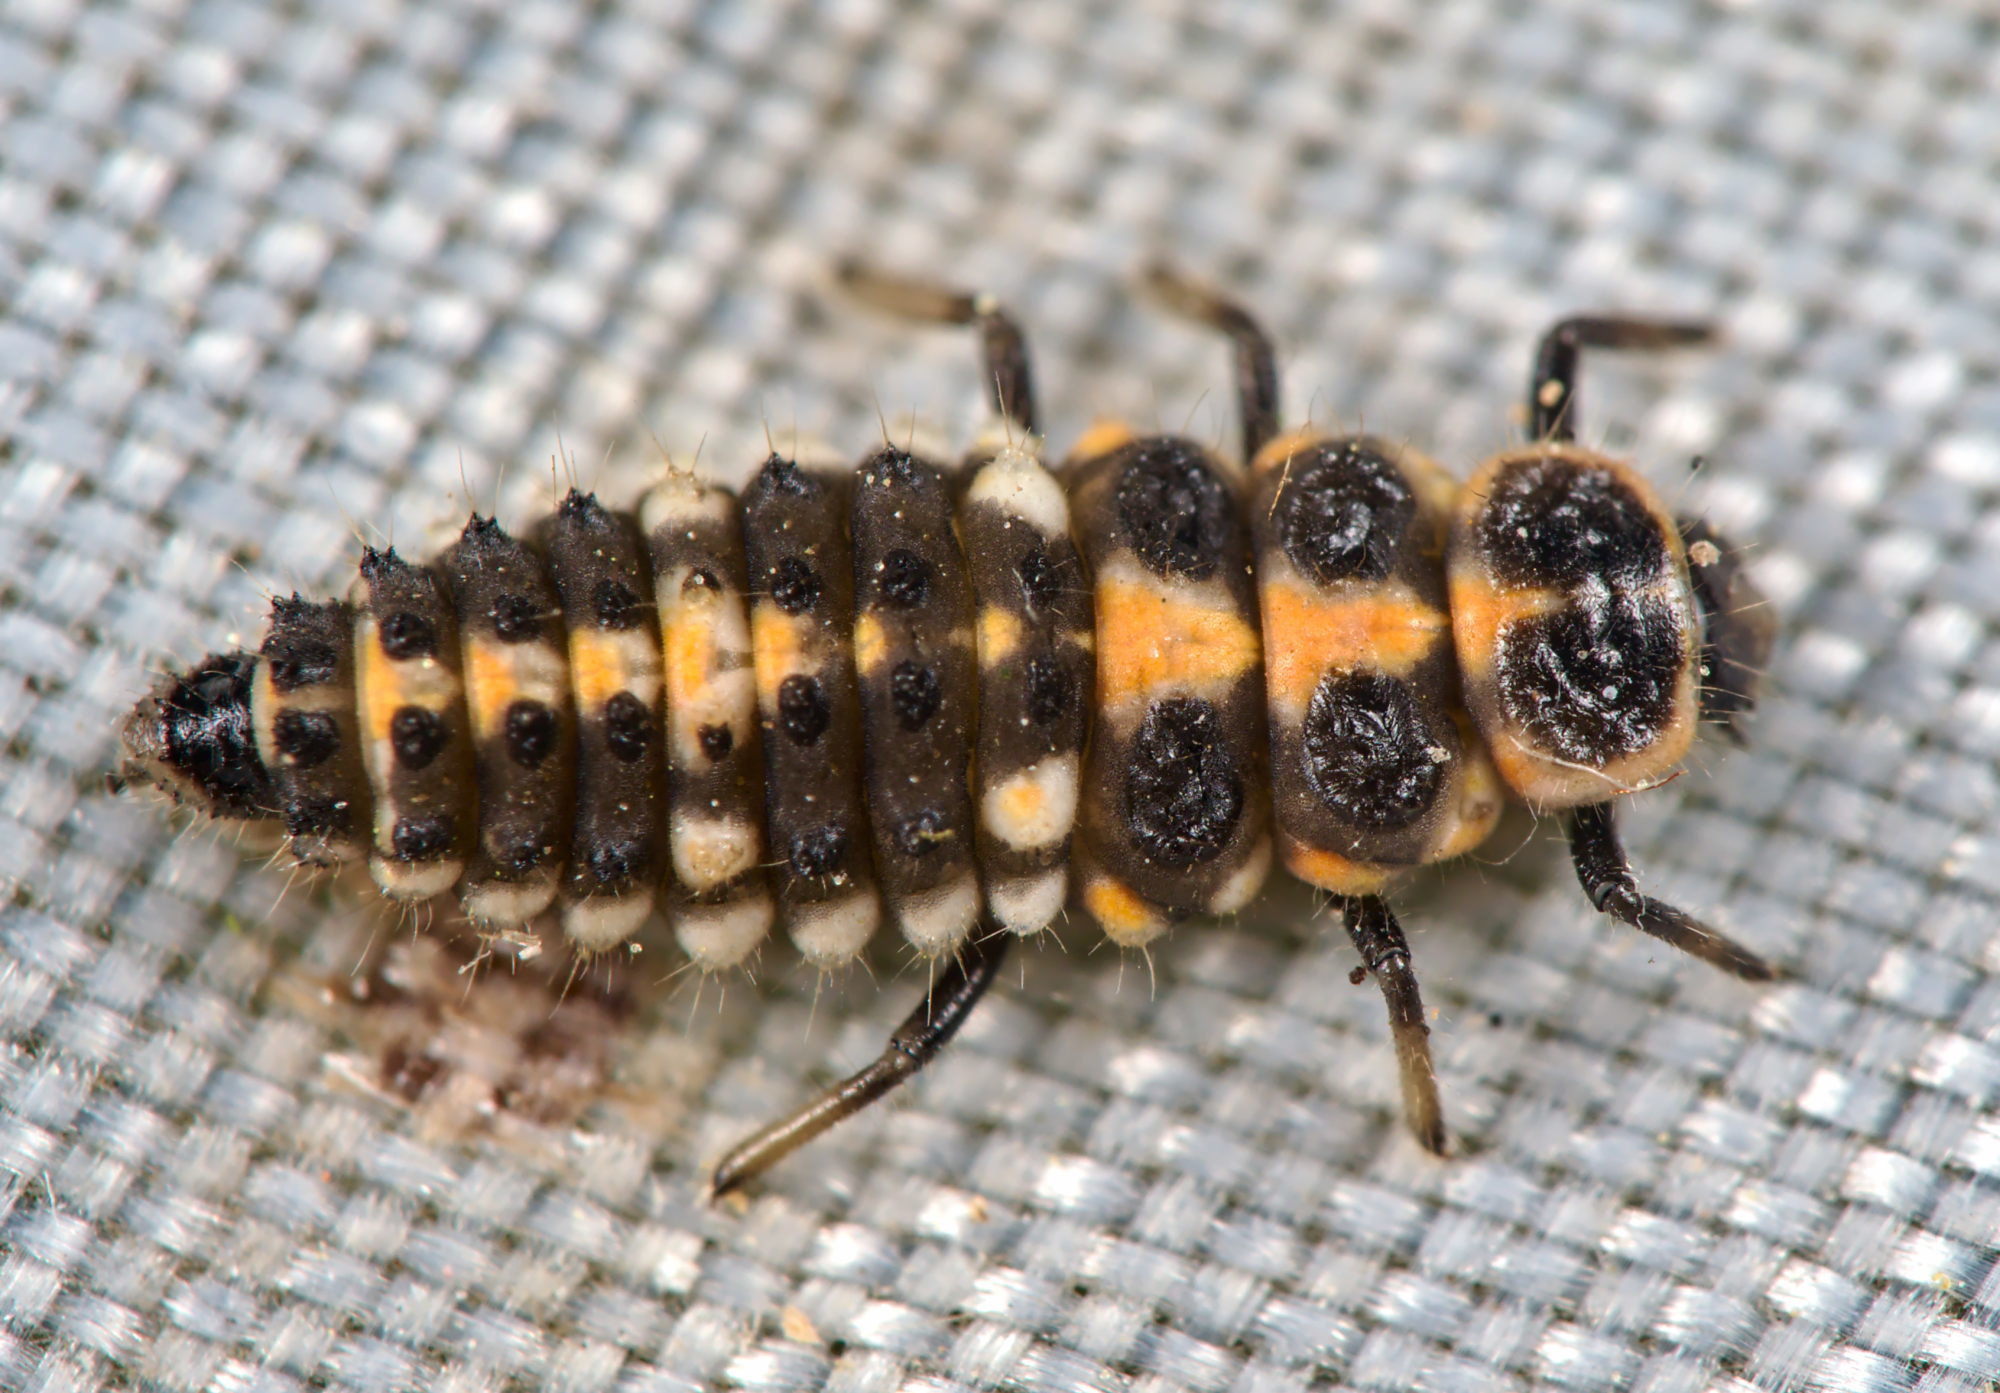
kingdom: Animalia
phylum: Arthropoda
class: Insecta
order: Coleoptera
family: Coccinellidae
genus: Oenopia
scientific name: Oenopia conglobata
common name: Ladybird beetle
